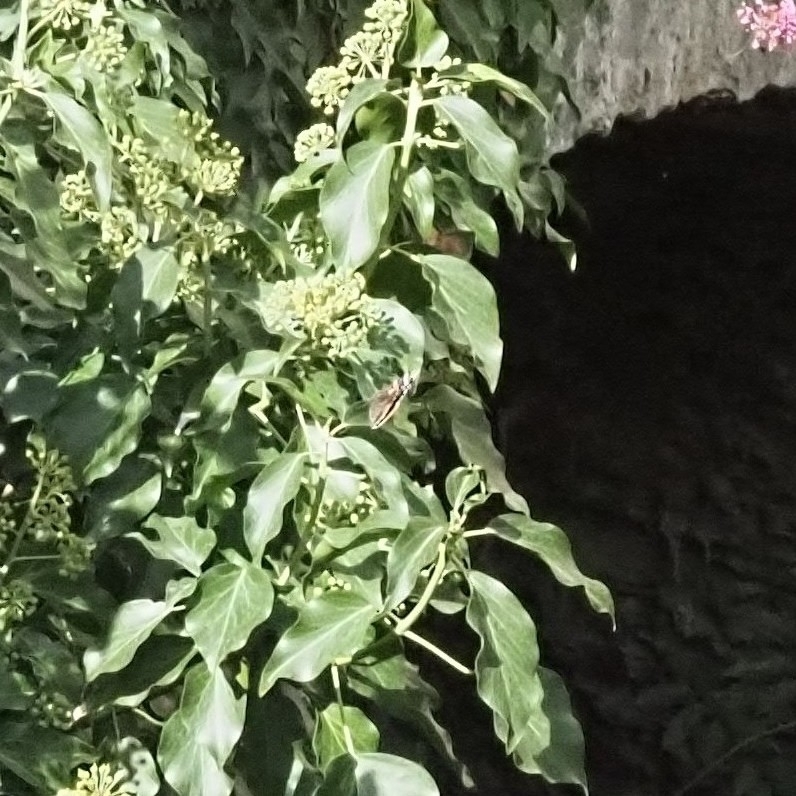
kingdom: Animalia
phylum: Arthropoda
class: Insecta
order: Lepidoptera
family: Nymphalidae
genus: Vanessa
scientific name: Vanessa atalanta
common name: Red admiral
